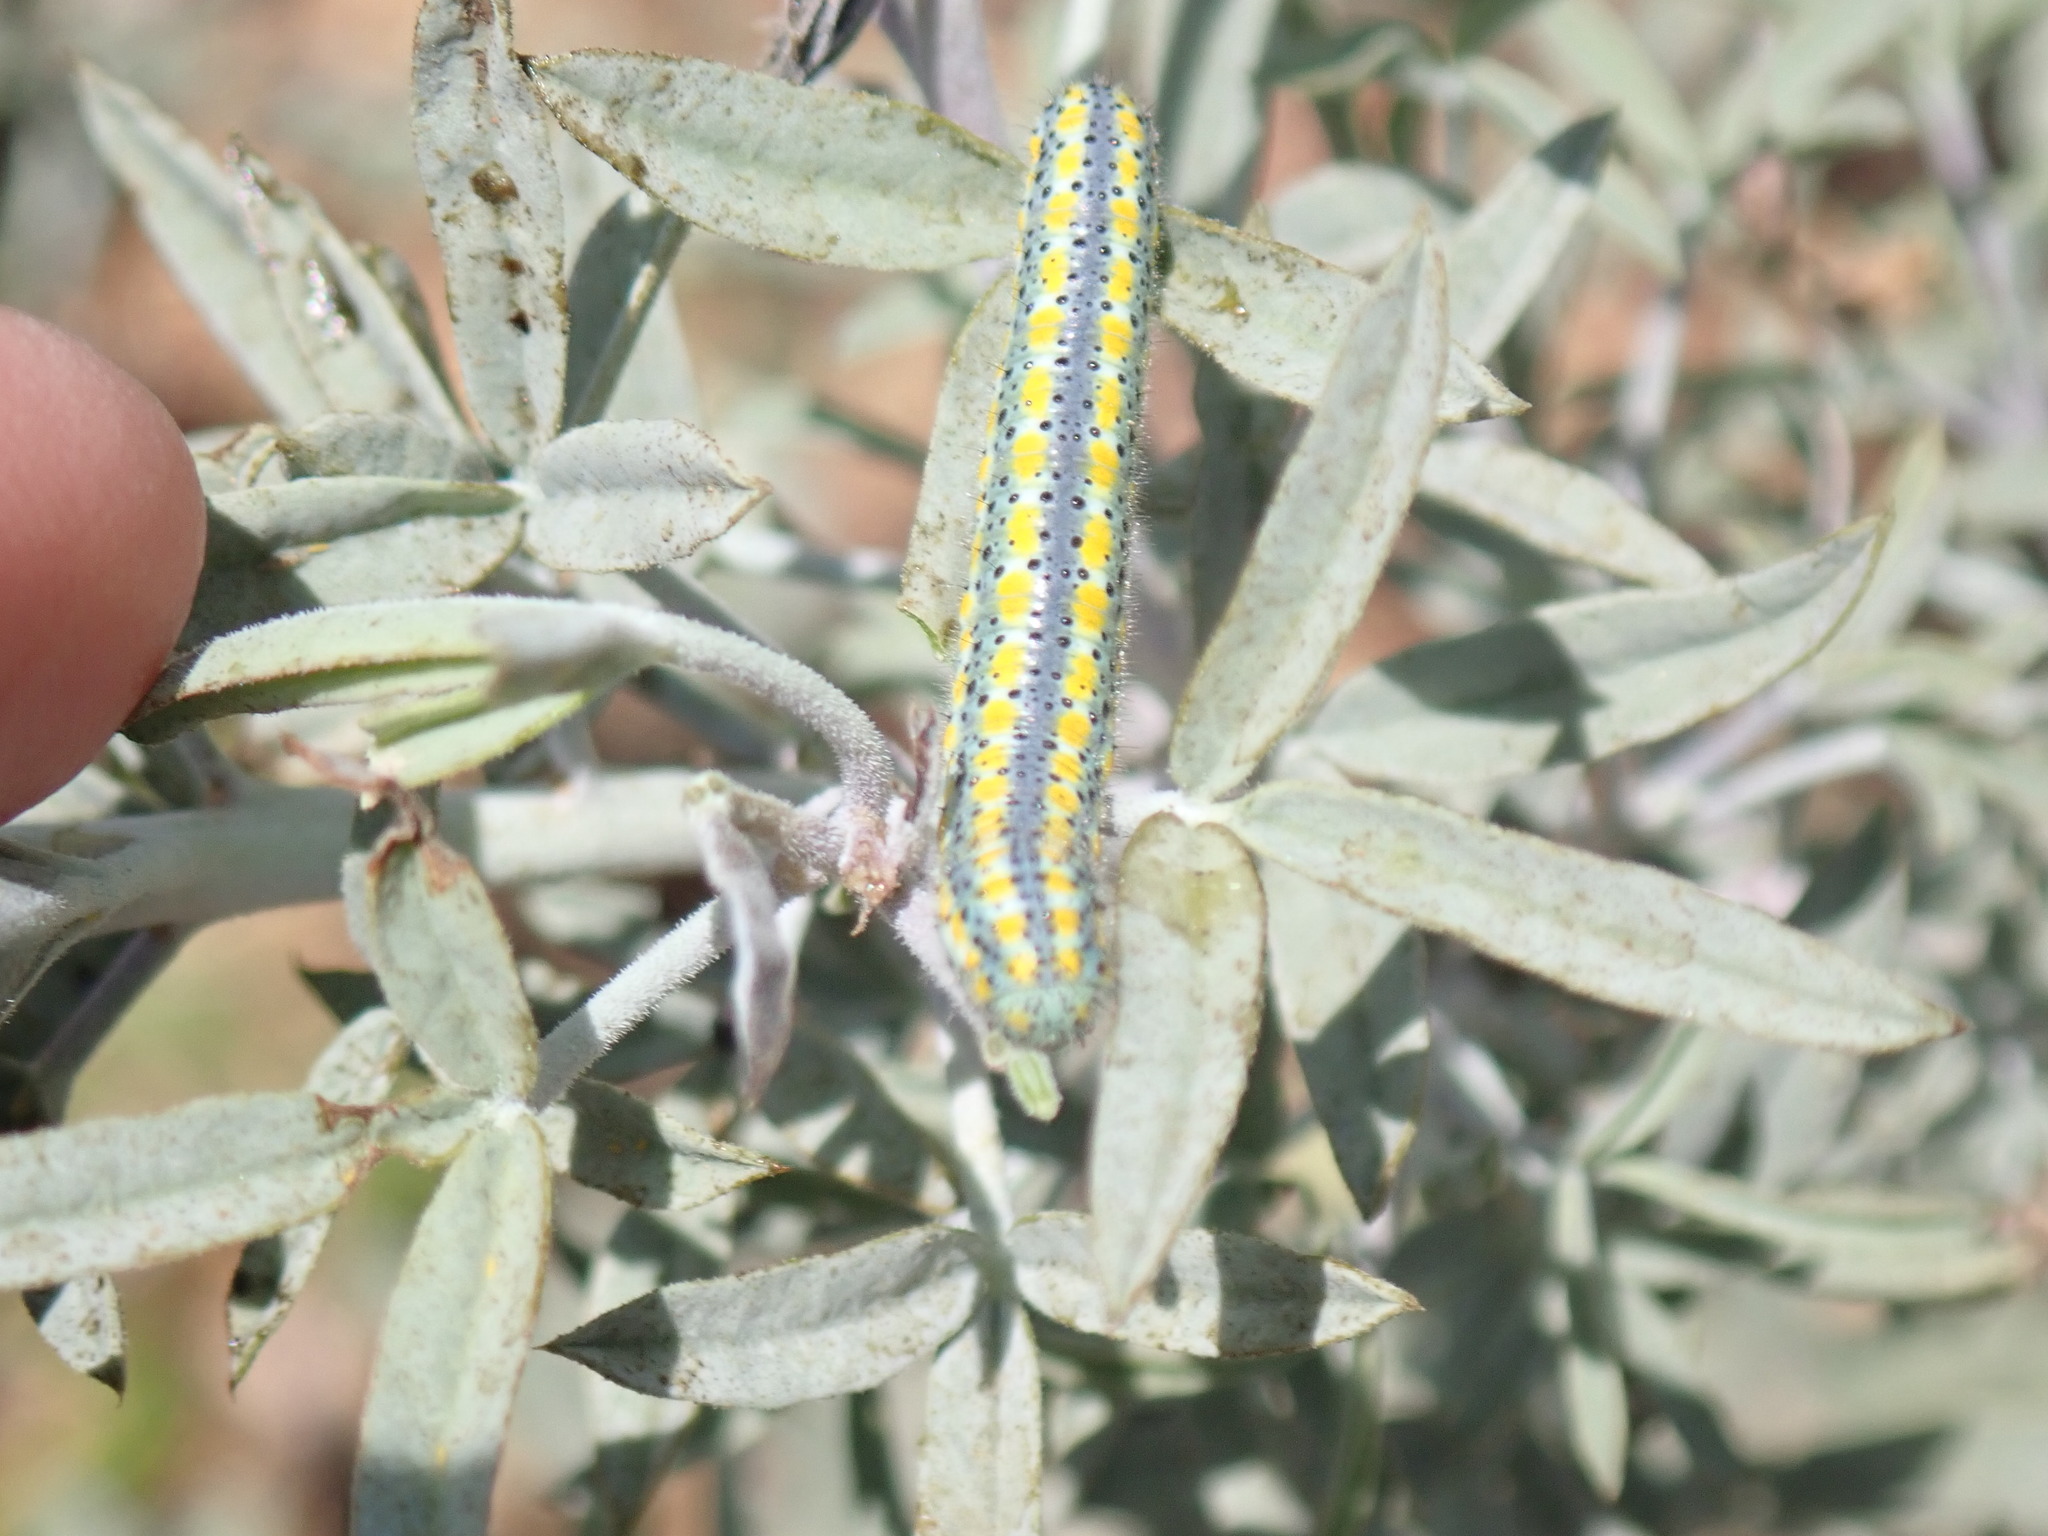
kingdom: Animalia
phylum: Arthropoda
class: Insecta
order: Lepidoptera
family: Pieridae
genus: Pontia
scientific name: Pontia protodice
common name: Checkered white
